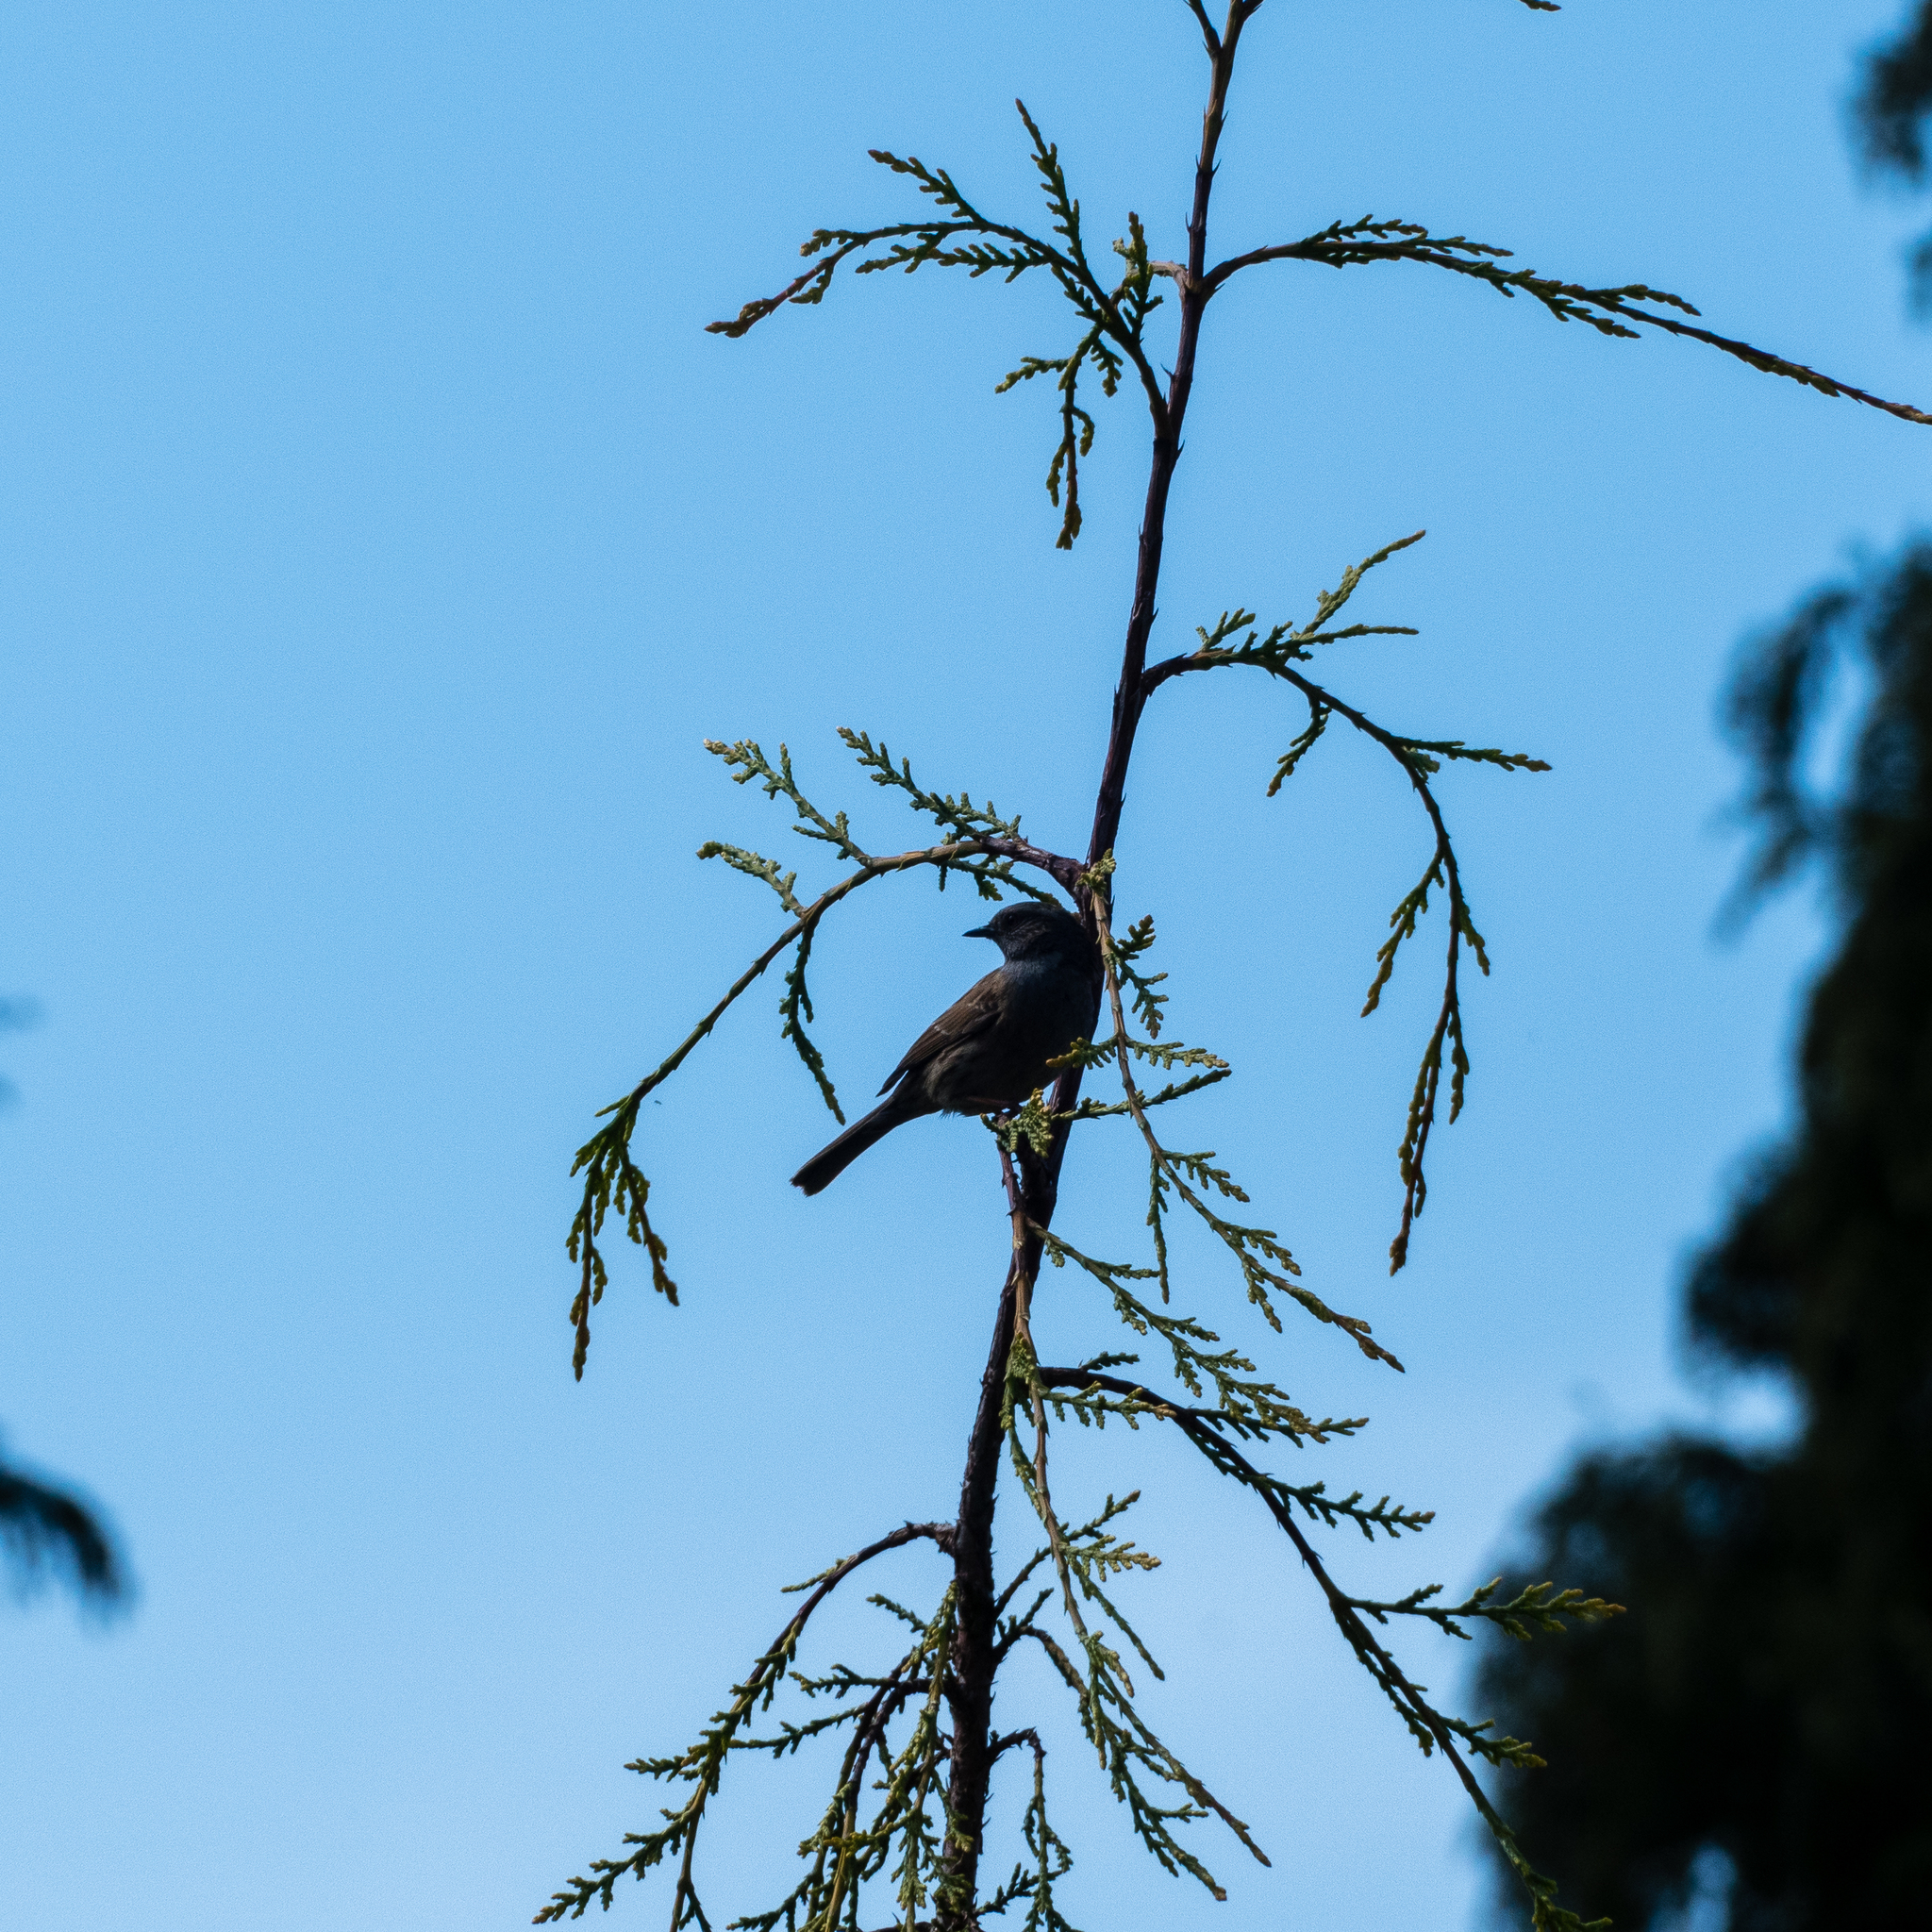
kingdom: Animalia
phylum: Chordata
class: Aves
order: Passeriformes
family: Prunellidae
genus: Prunella
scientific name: Prunella modularis
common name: Dunnock
